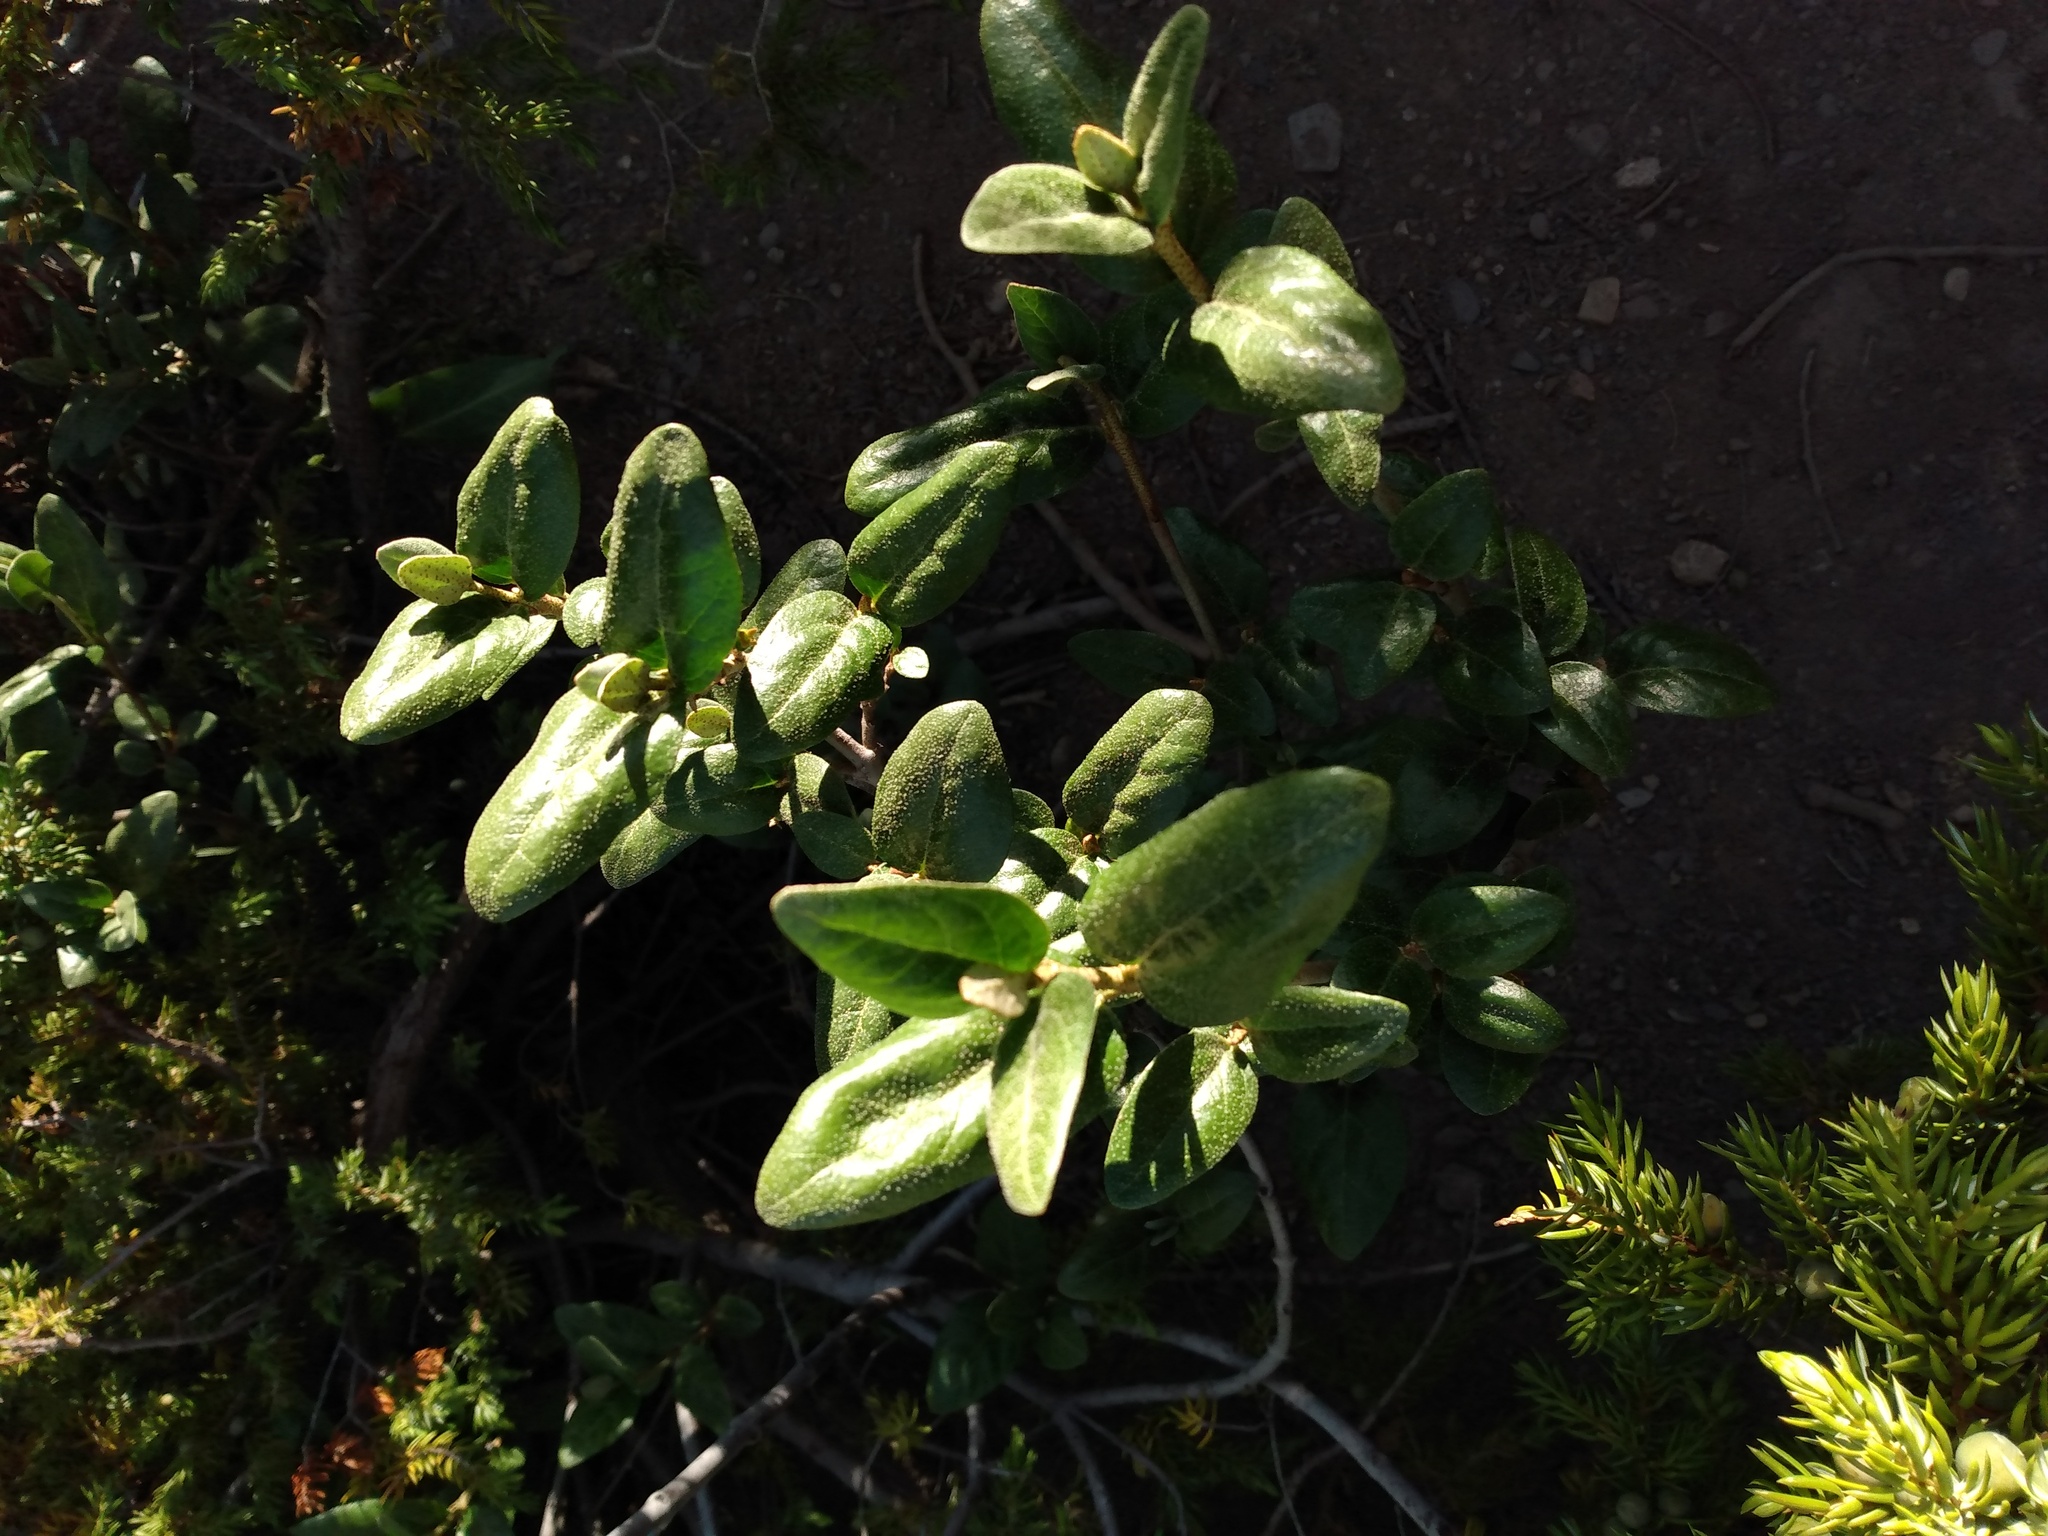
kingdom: Plantae
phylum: Tracheophyta
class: Magnoliopsida
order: Rosales
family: Elaeagnaceae
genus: Shepherdia
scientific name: Shepherdia canadensis
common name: Soapberry
